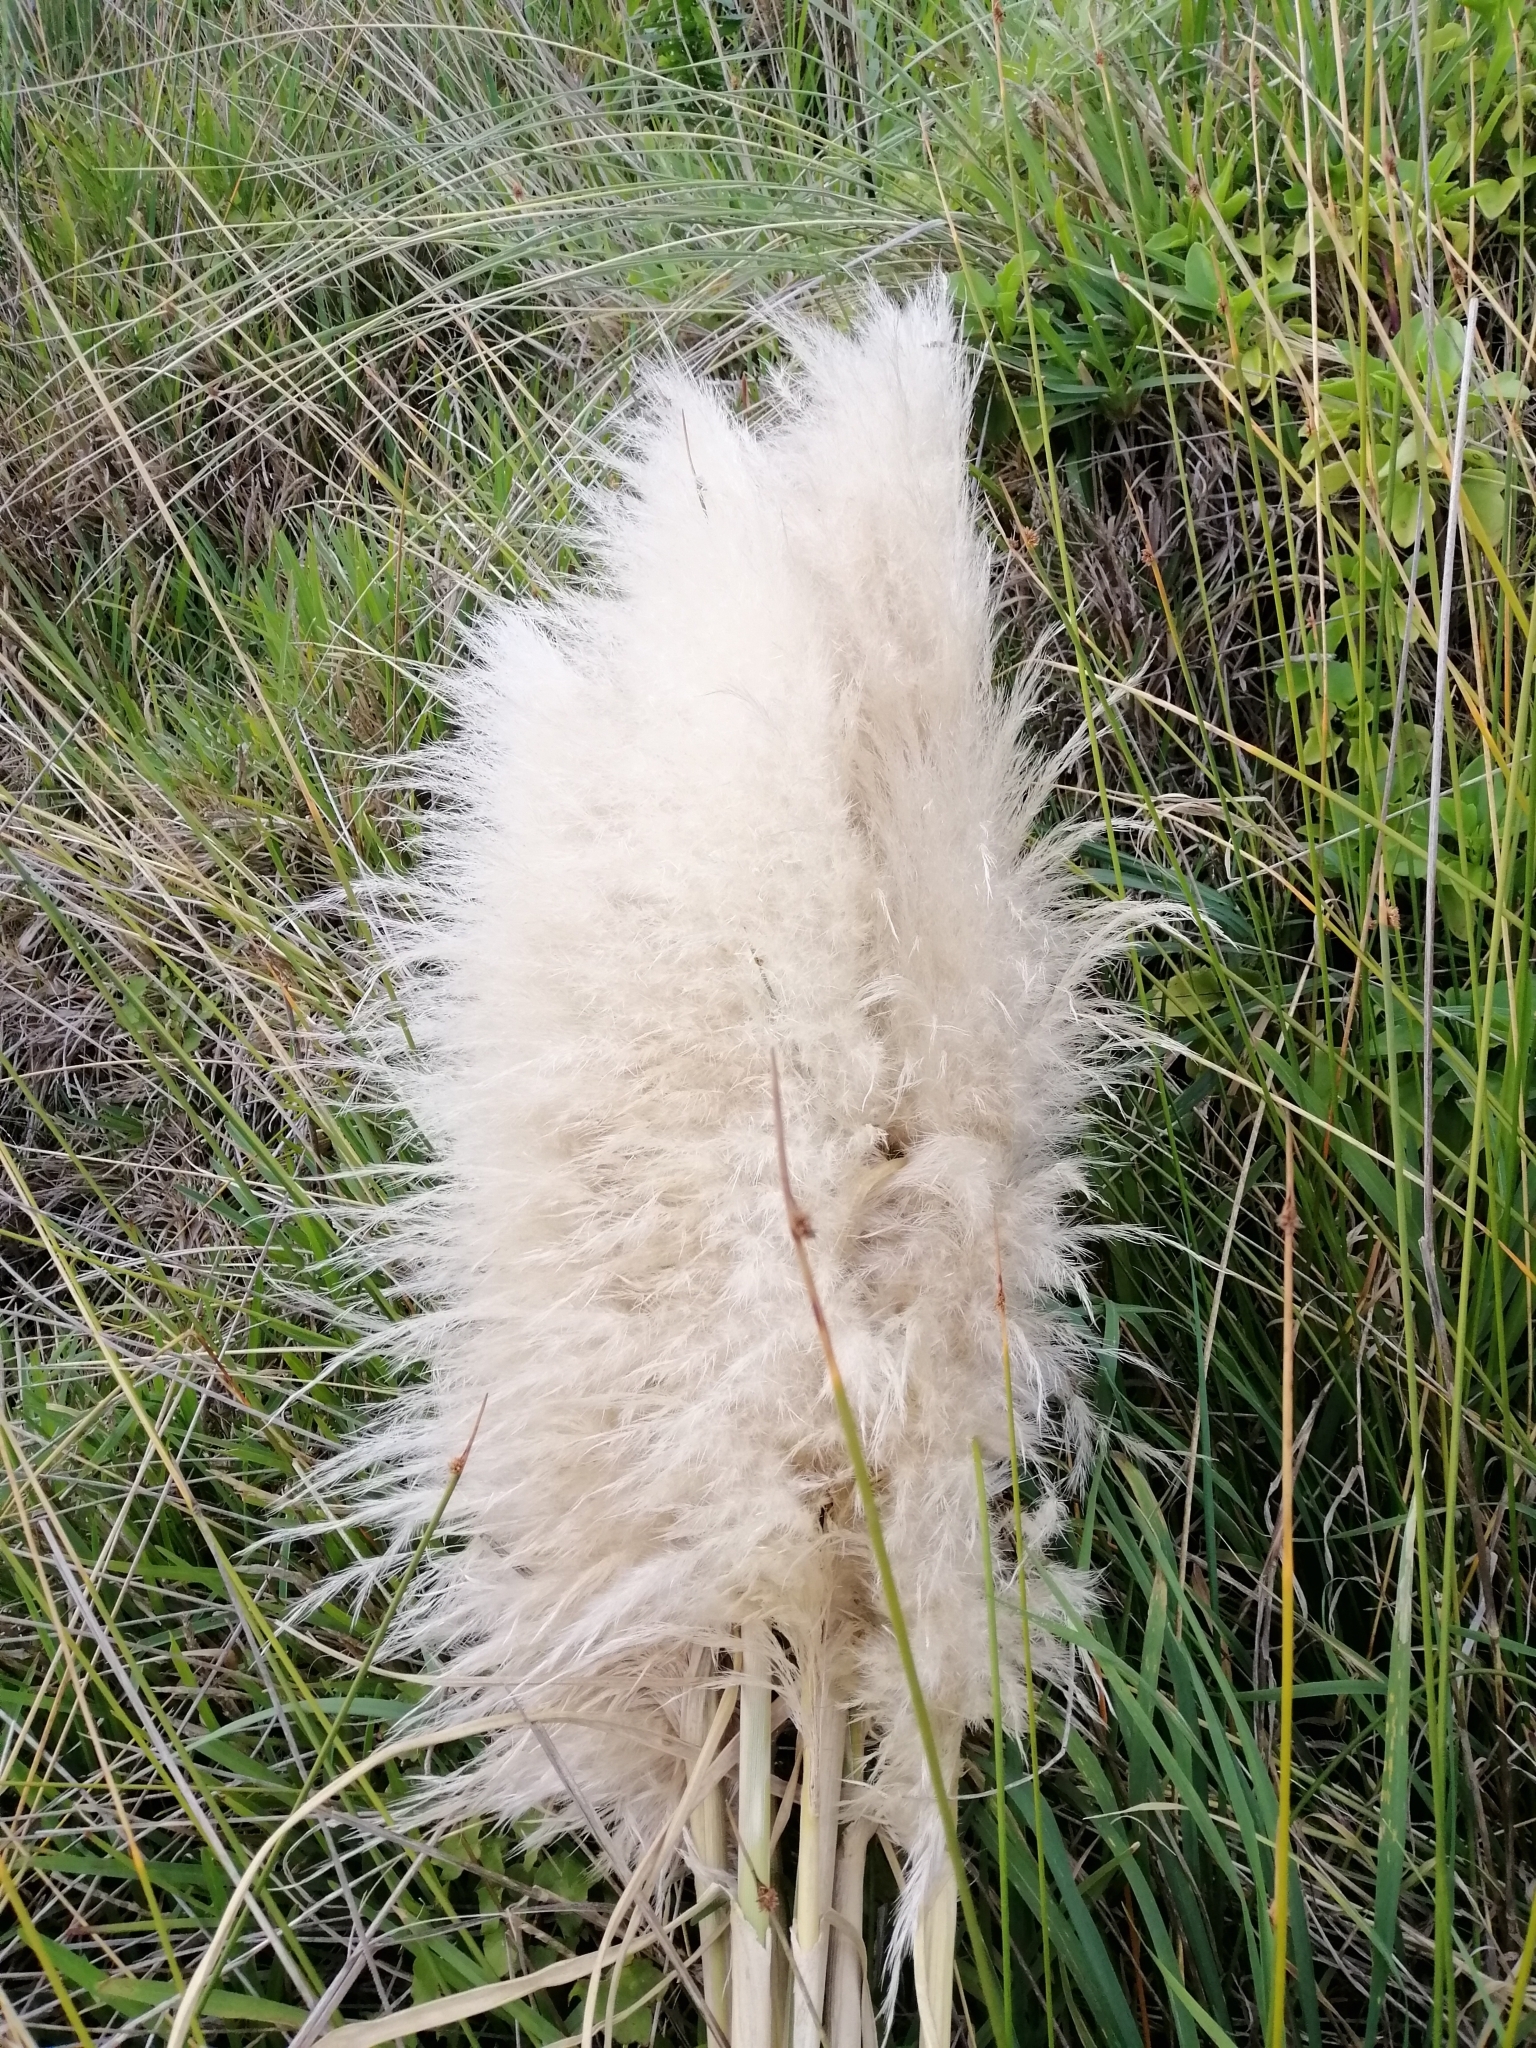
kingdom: Plantae
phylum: Tracheophyta
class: Liliopsida
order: Poales
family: Poaceae
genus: Cortaderia
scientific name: Cortaderia selloana
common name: Uruguayan pampas grass
